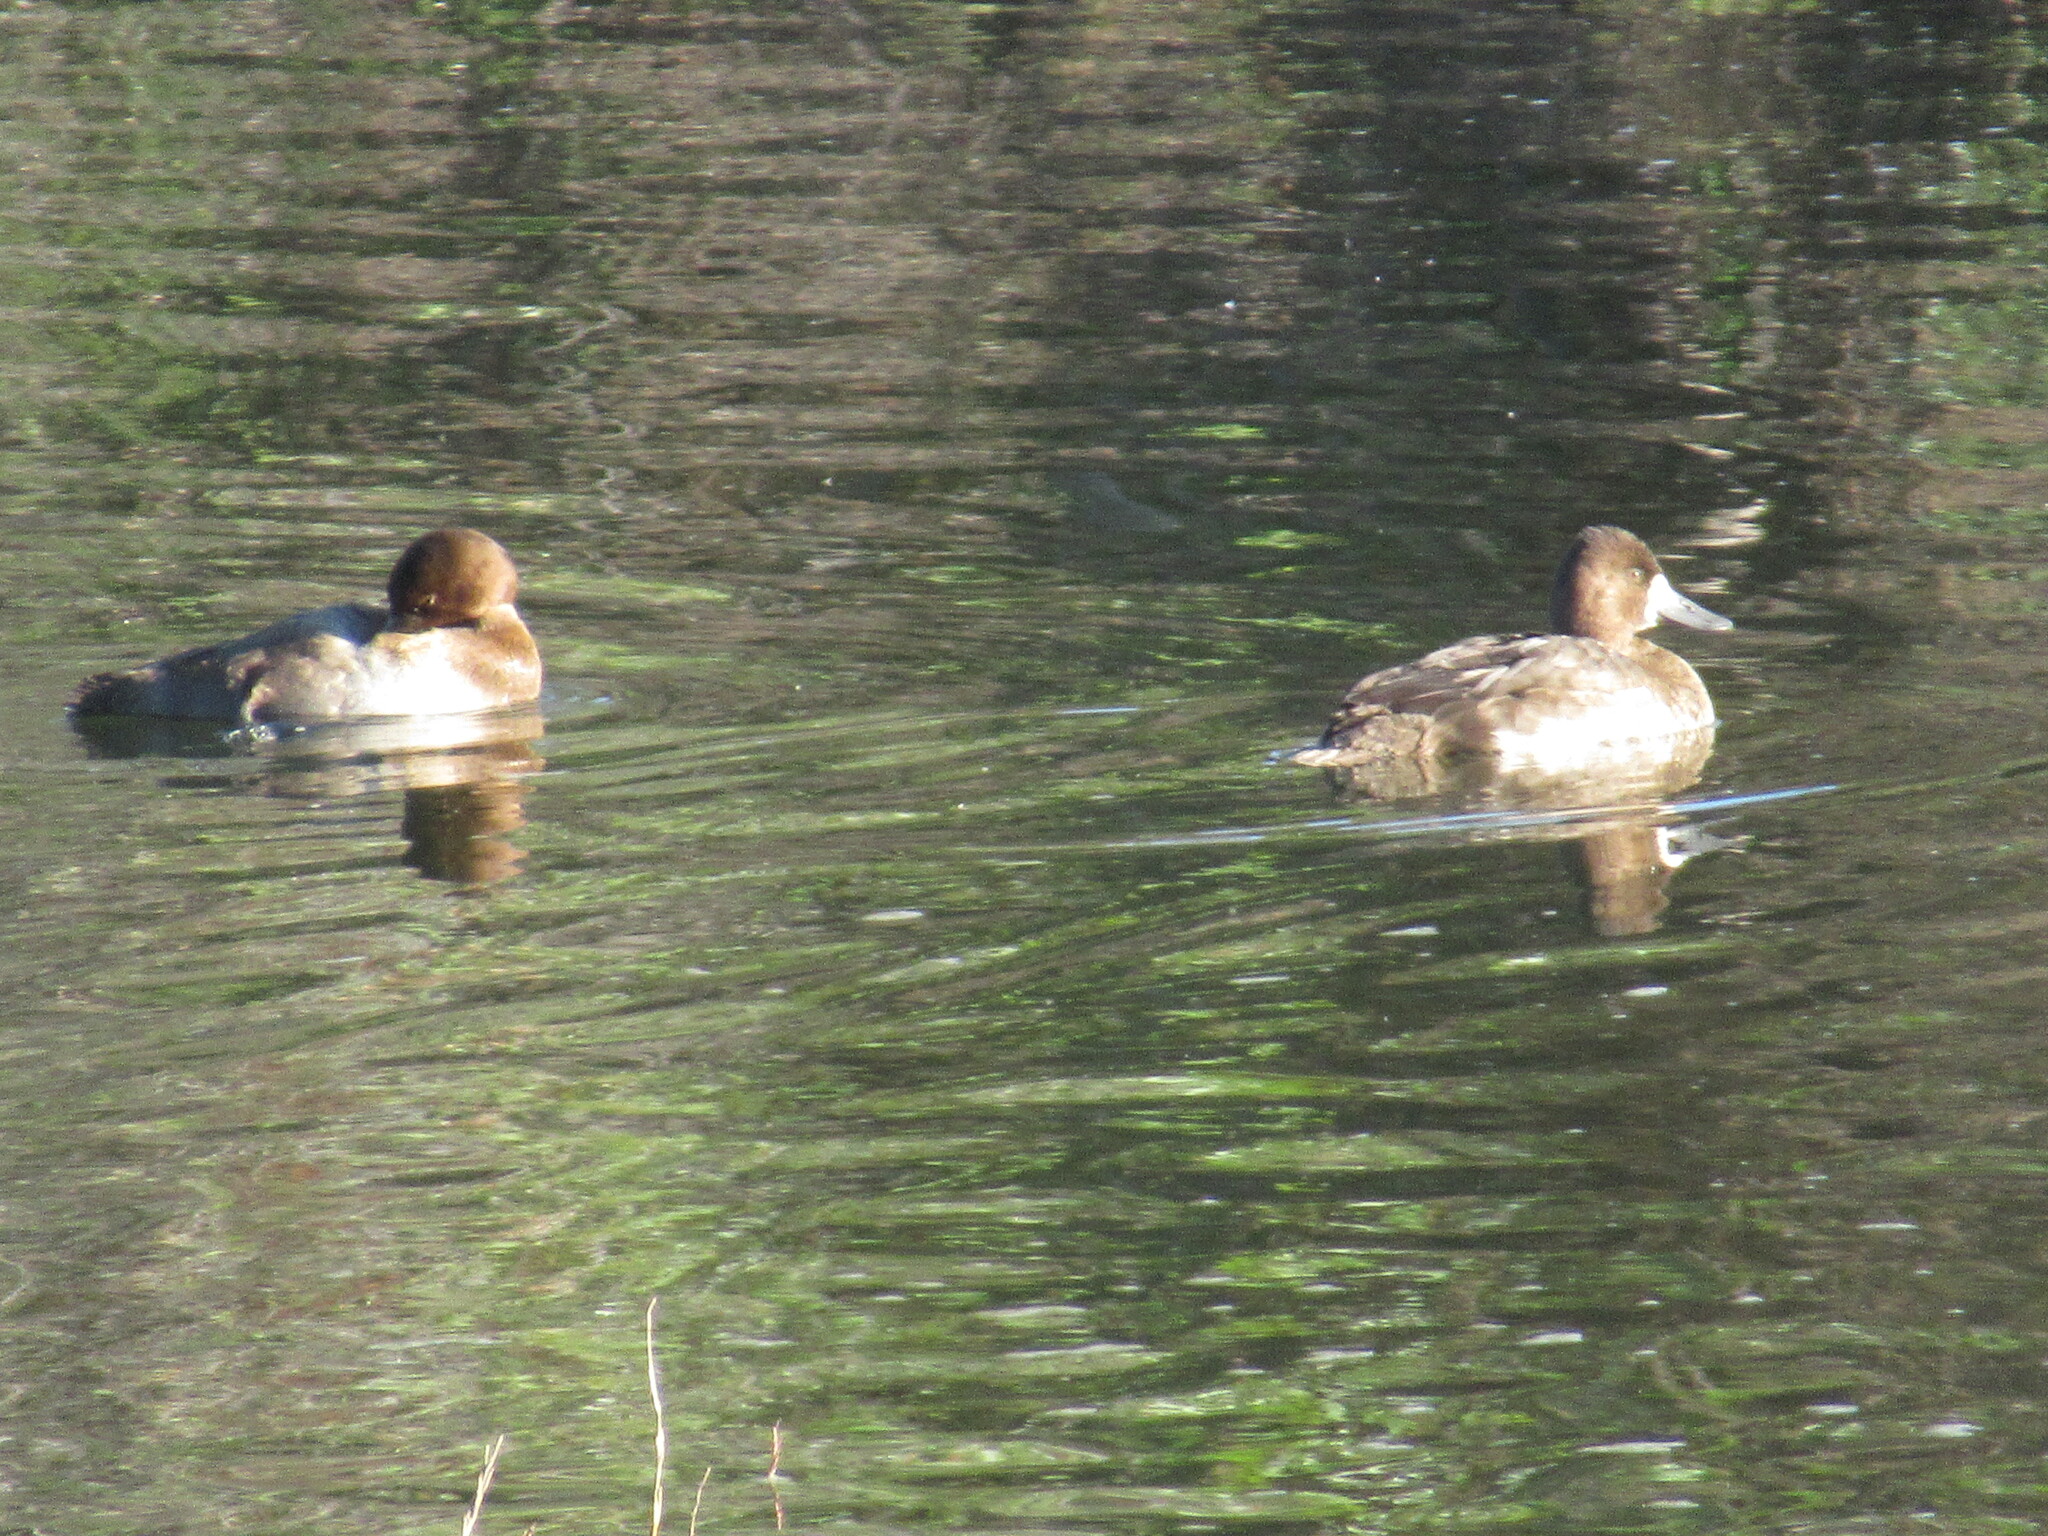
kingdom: Animalia
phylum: Chordata
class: Aves
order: Anseriformes
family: Anatidae
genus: Aythya
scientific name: Aythya affinis
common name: Lesser scaup
